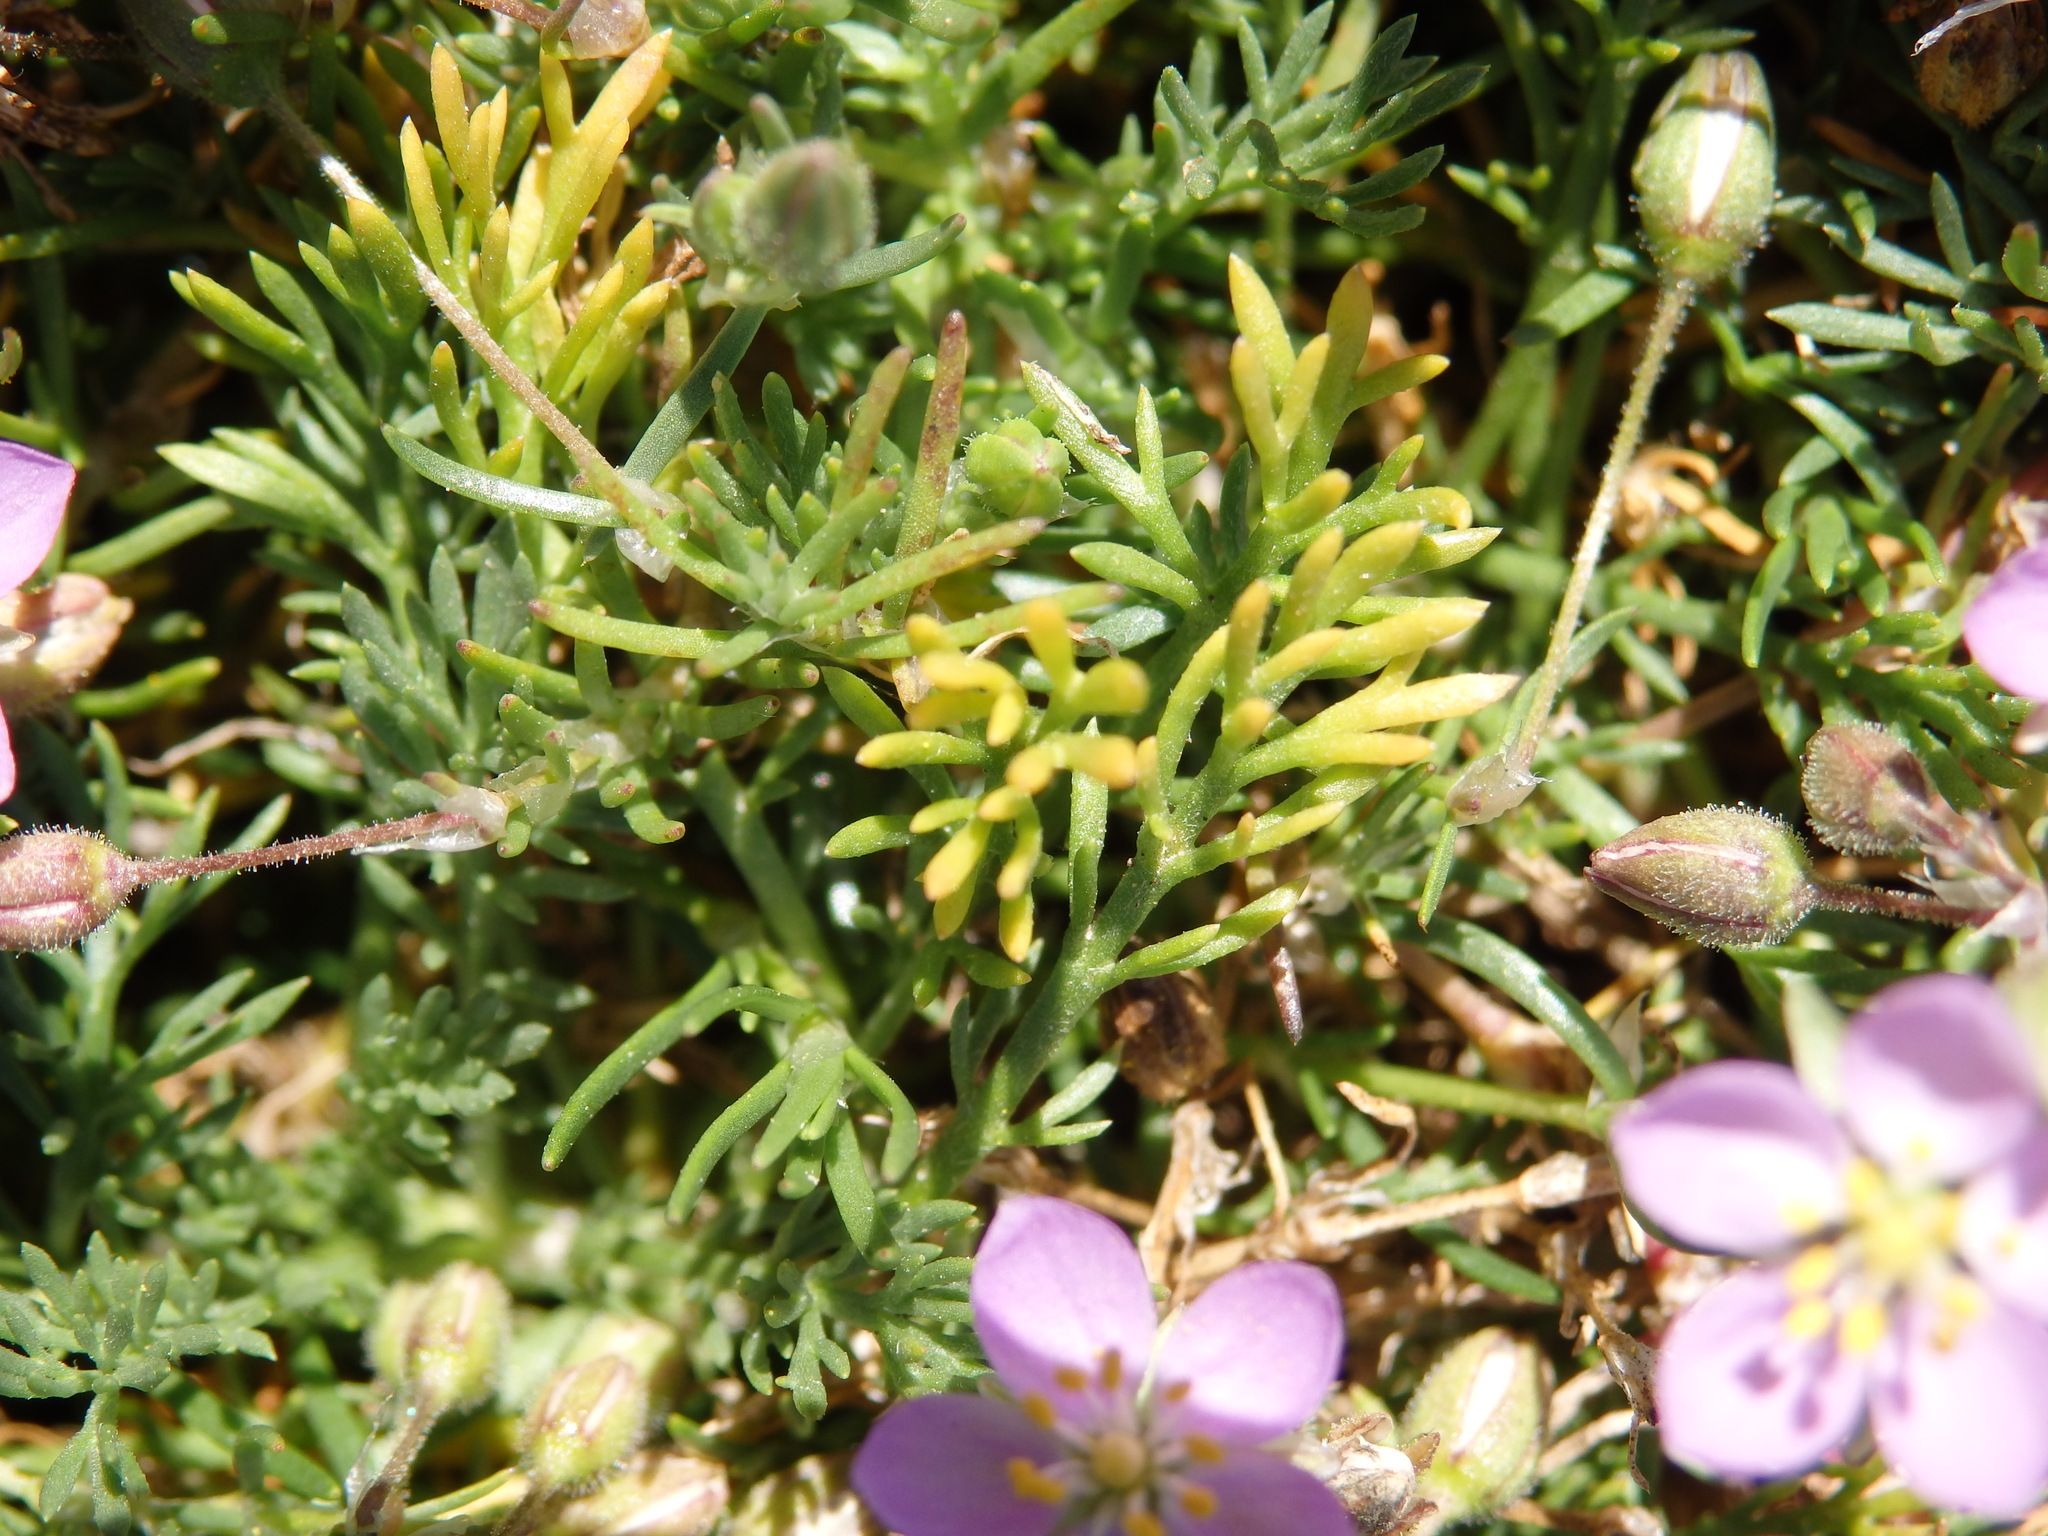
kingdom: Plantae
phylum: Tracheophyta
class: Magnoliopsida
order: Caryophyllales
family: Caryophyllaceae
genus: Spergularia
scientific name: Spergularia rubra
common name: Red sand-spurrey
